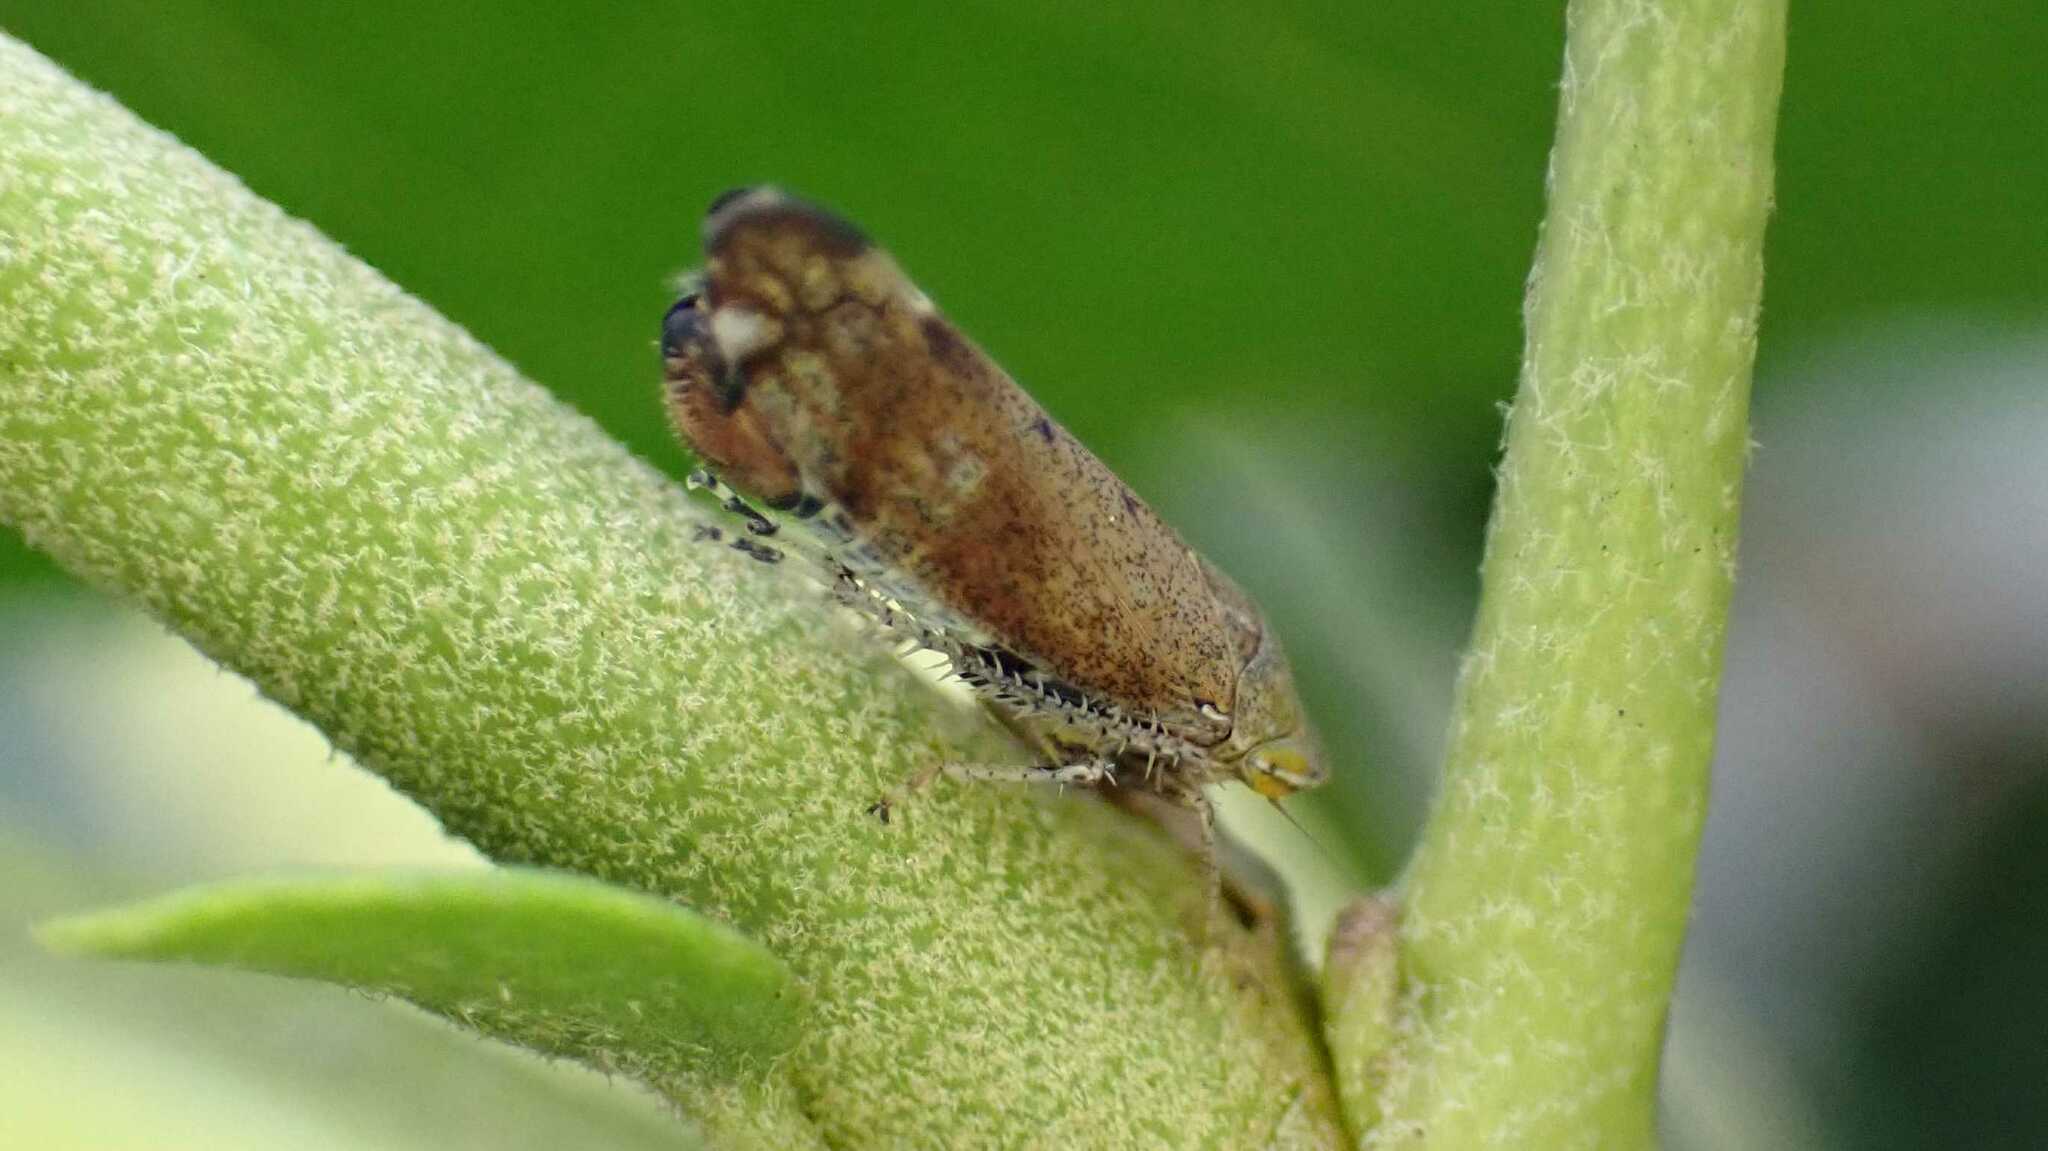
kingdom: Animalia
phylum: Arthropoda
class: Insecta
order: Hemiptera
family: Cicadellidae
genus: Fieberiella
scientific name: Fieberiella
